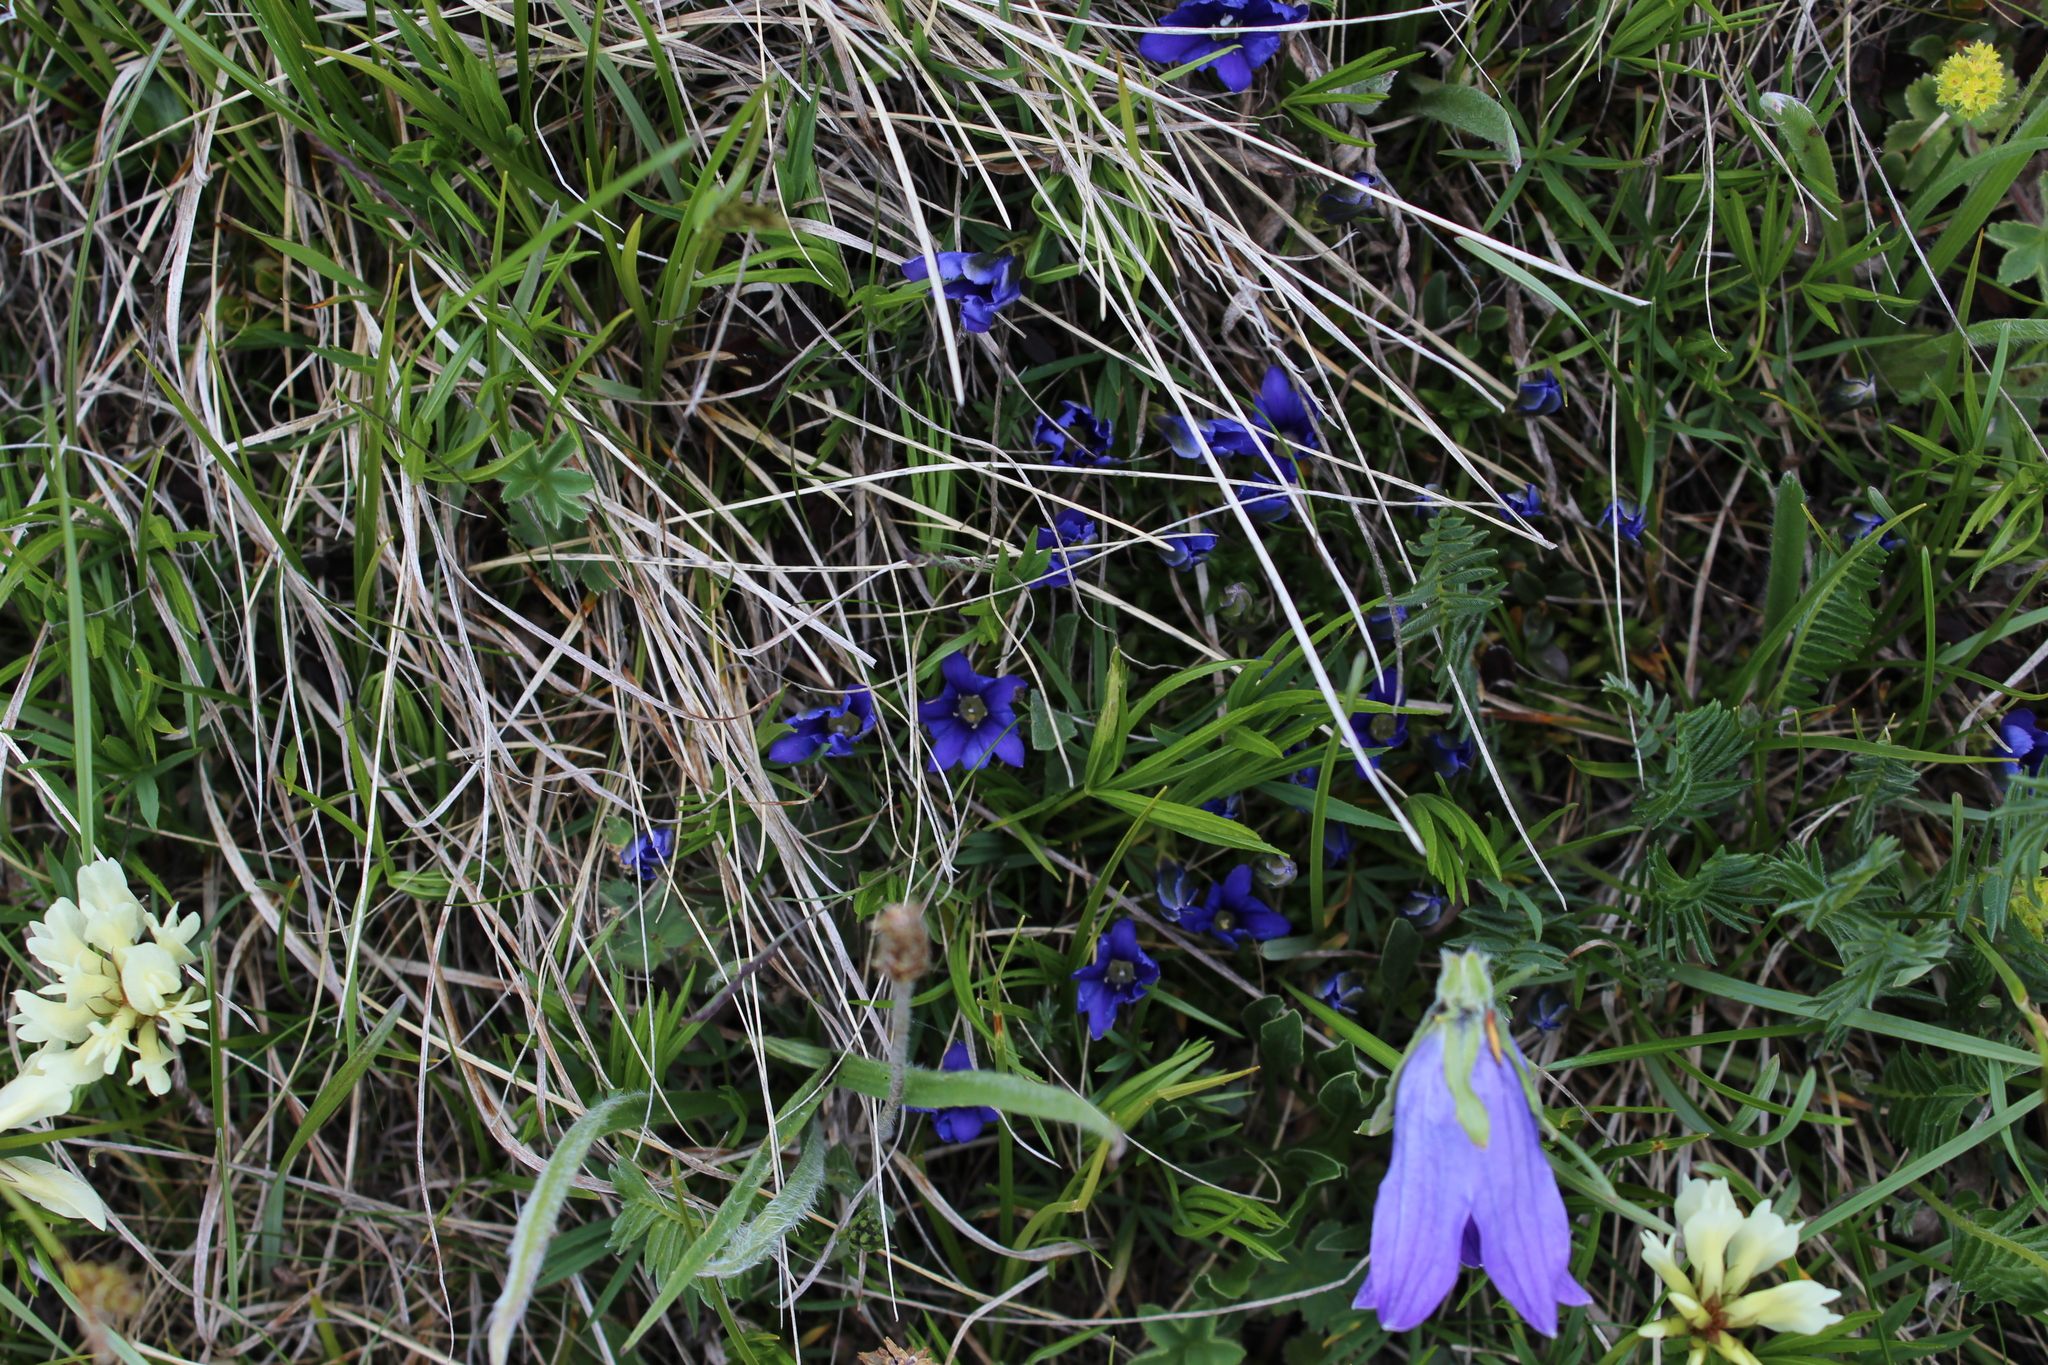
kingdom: Plantae
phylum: Tracheophyta
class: Magnoliopsida
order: Gentianales
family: Gentianaceae
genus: Gentiana
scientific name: Gentiana dshimilensis
